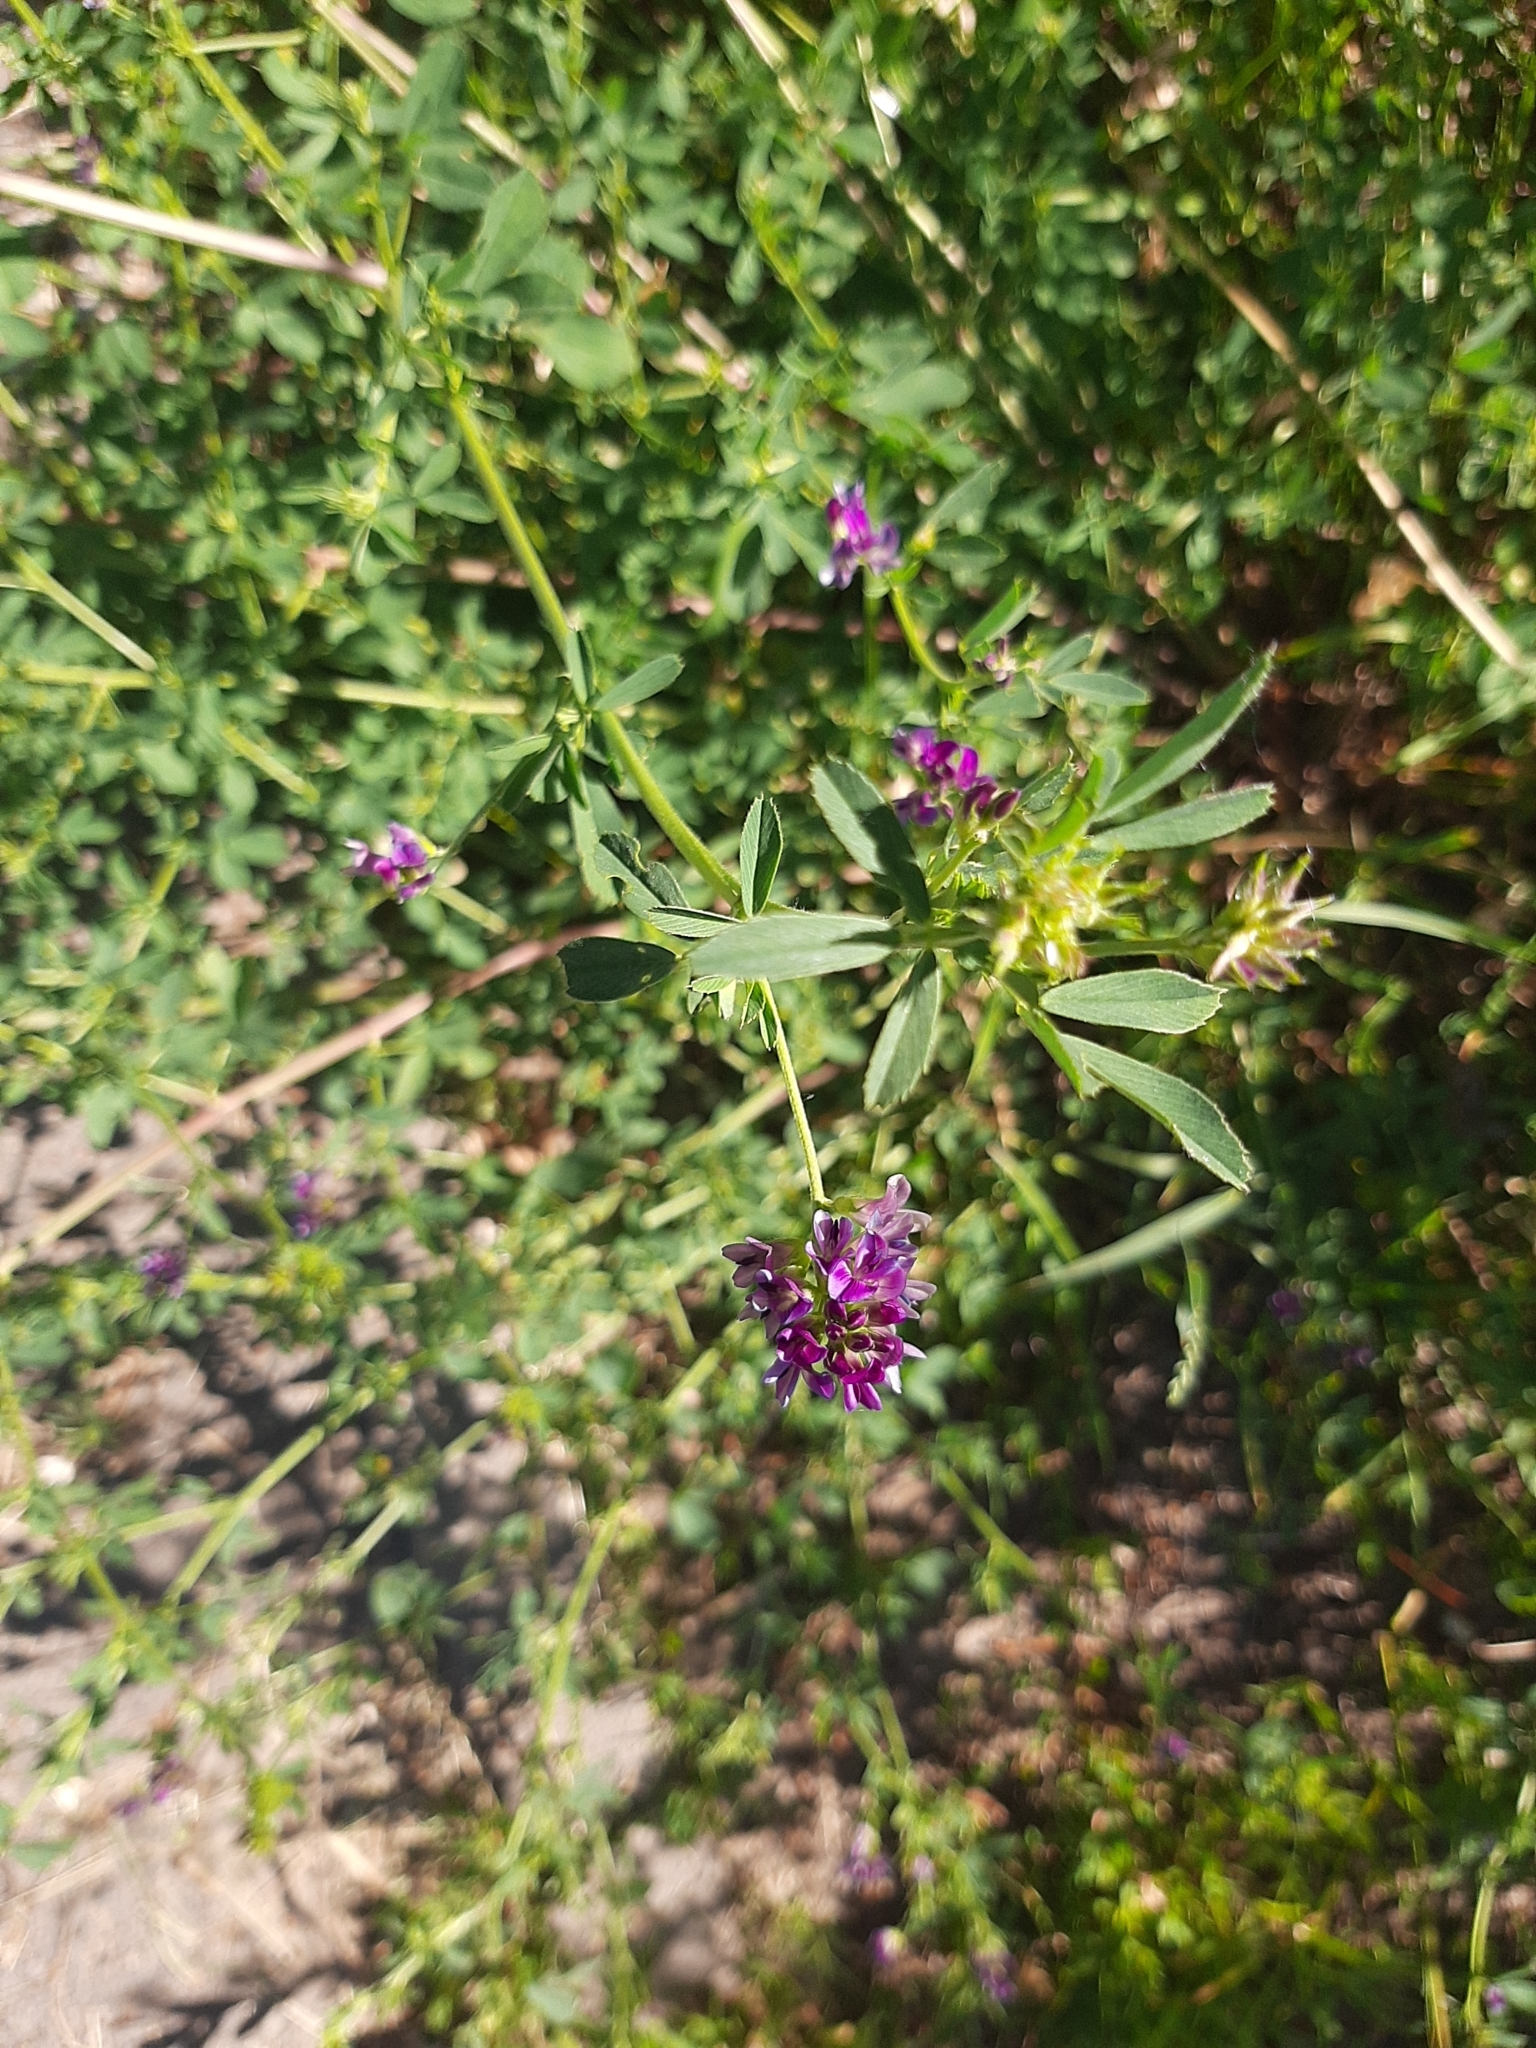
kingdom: Plantae
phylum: Tracheophyta
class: Magnoliopsida
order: Fabales
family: Fabaceae
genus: Medicago
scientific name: Medicago sativa
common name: Alfalfa
